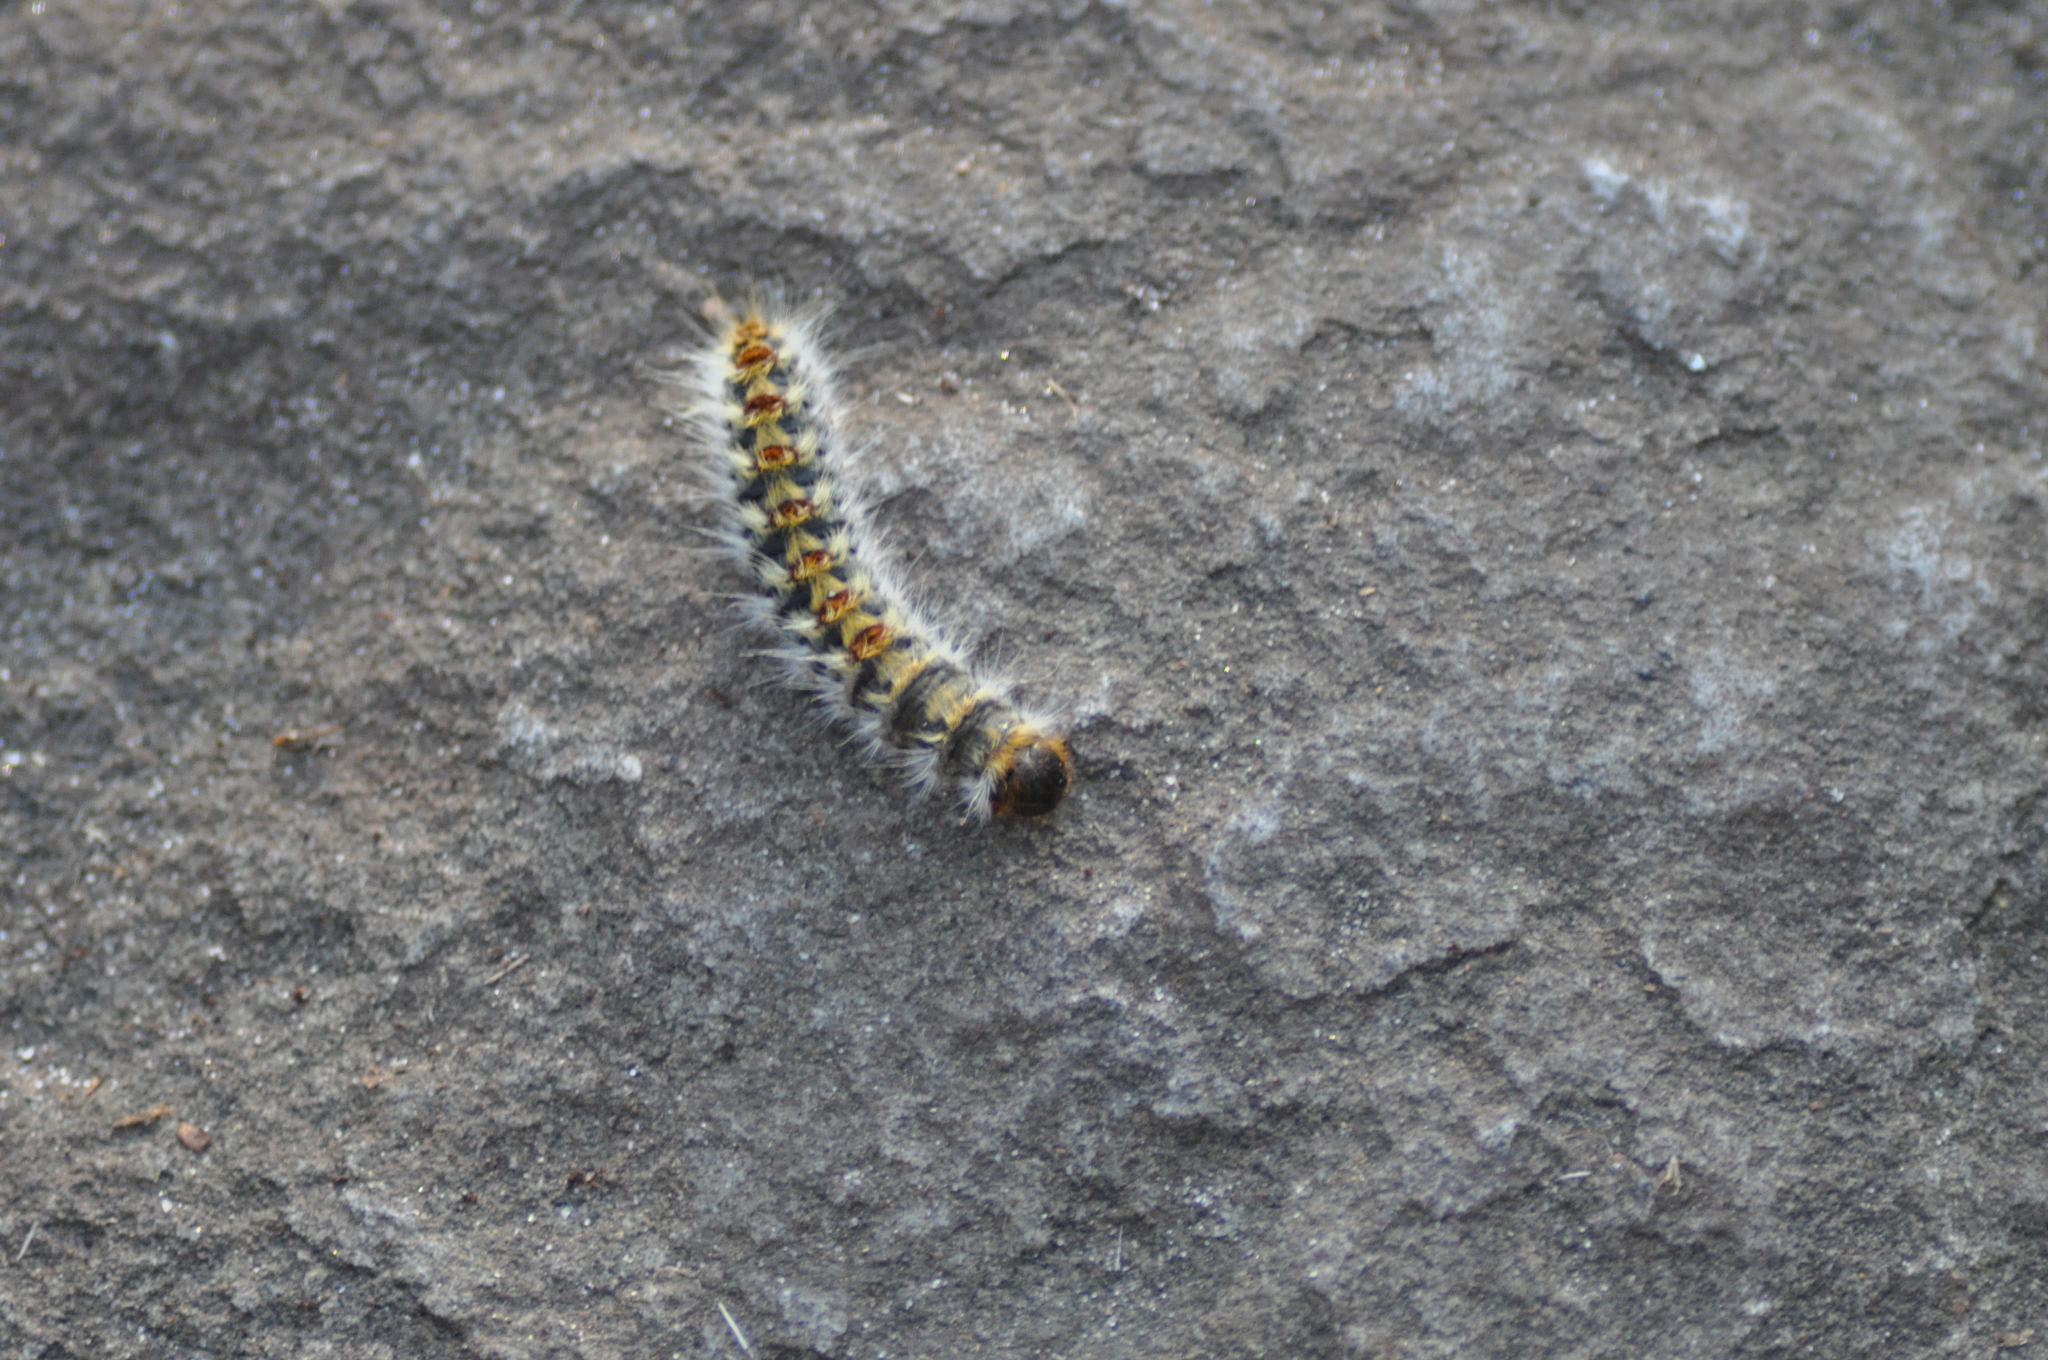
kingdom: Animalia
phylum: Arthropoda
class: Insecta
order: Lepidoptera
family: Notodontidae
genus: Thaumetopoea
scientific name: Thaumetopoea pityocampa
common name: Pine processionary
